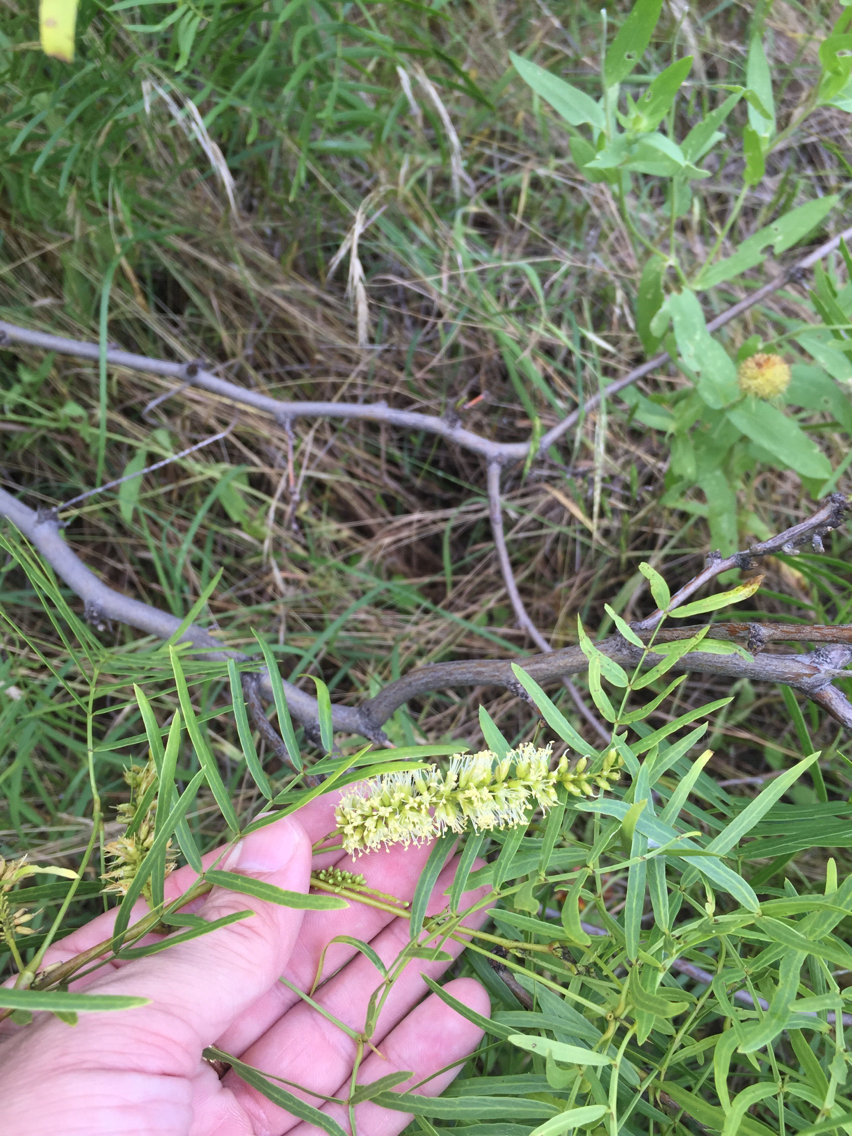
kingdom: Plantae
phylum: Tracheophyta
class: Magnoliopsida
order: Fabales
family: Fabaceae
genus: Prosopis
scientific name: Prosopis glandulosa
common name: Honey mesquite
